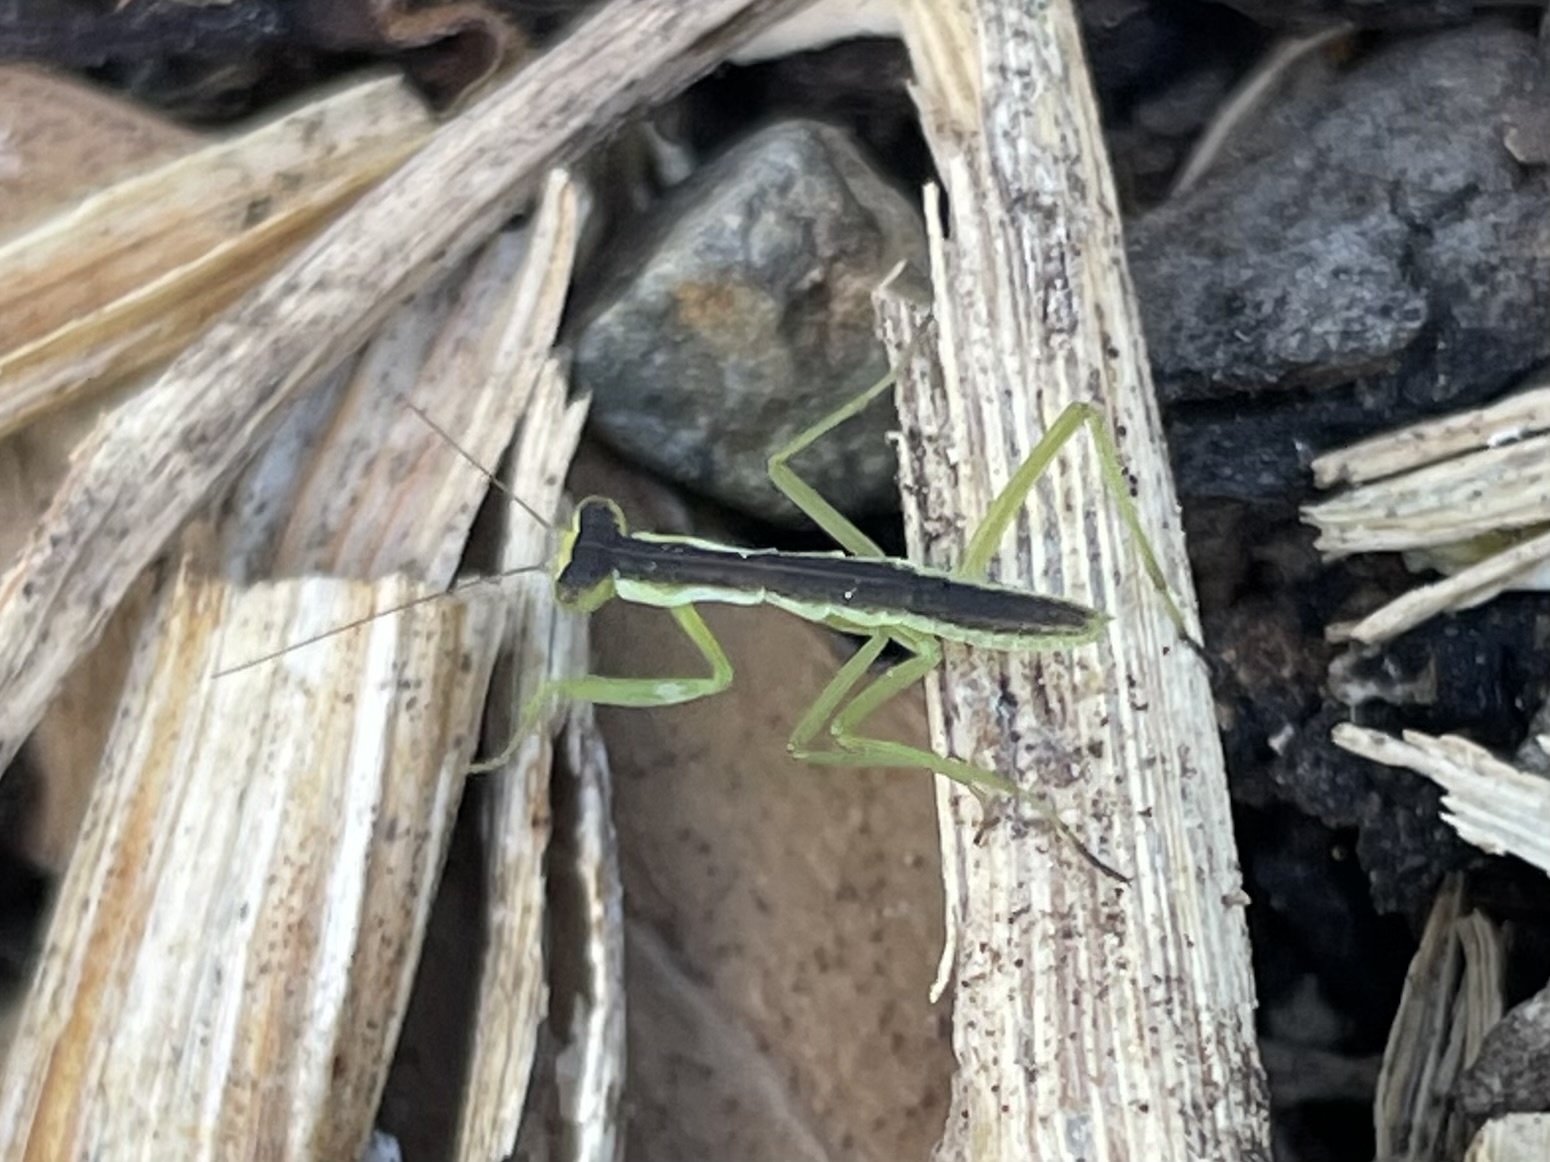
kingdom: Animalia
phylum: Arthropoda
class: Insecta
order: Mantodea
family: Mantidae
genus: Orthodera
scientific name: Orthodera novaezealandiae
